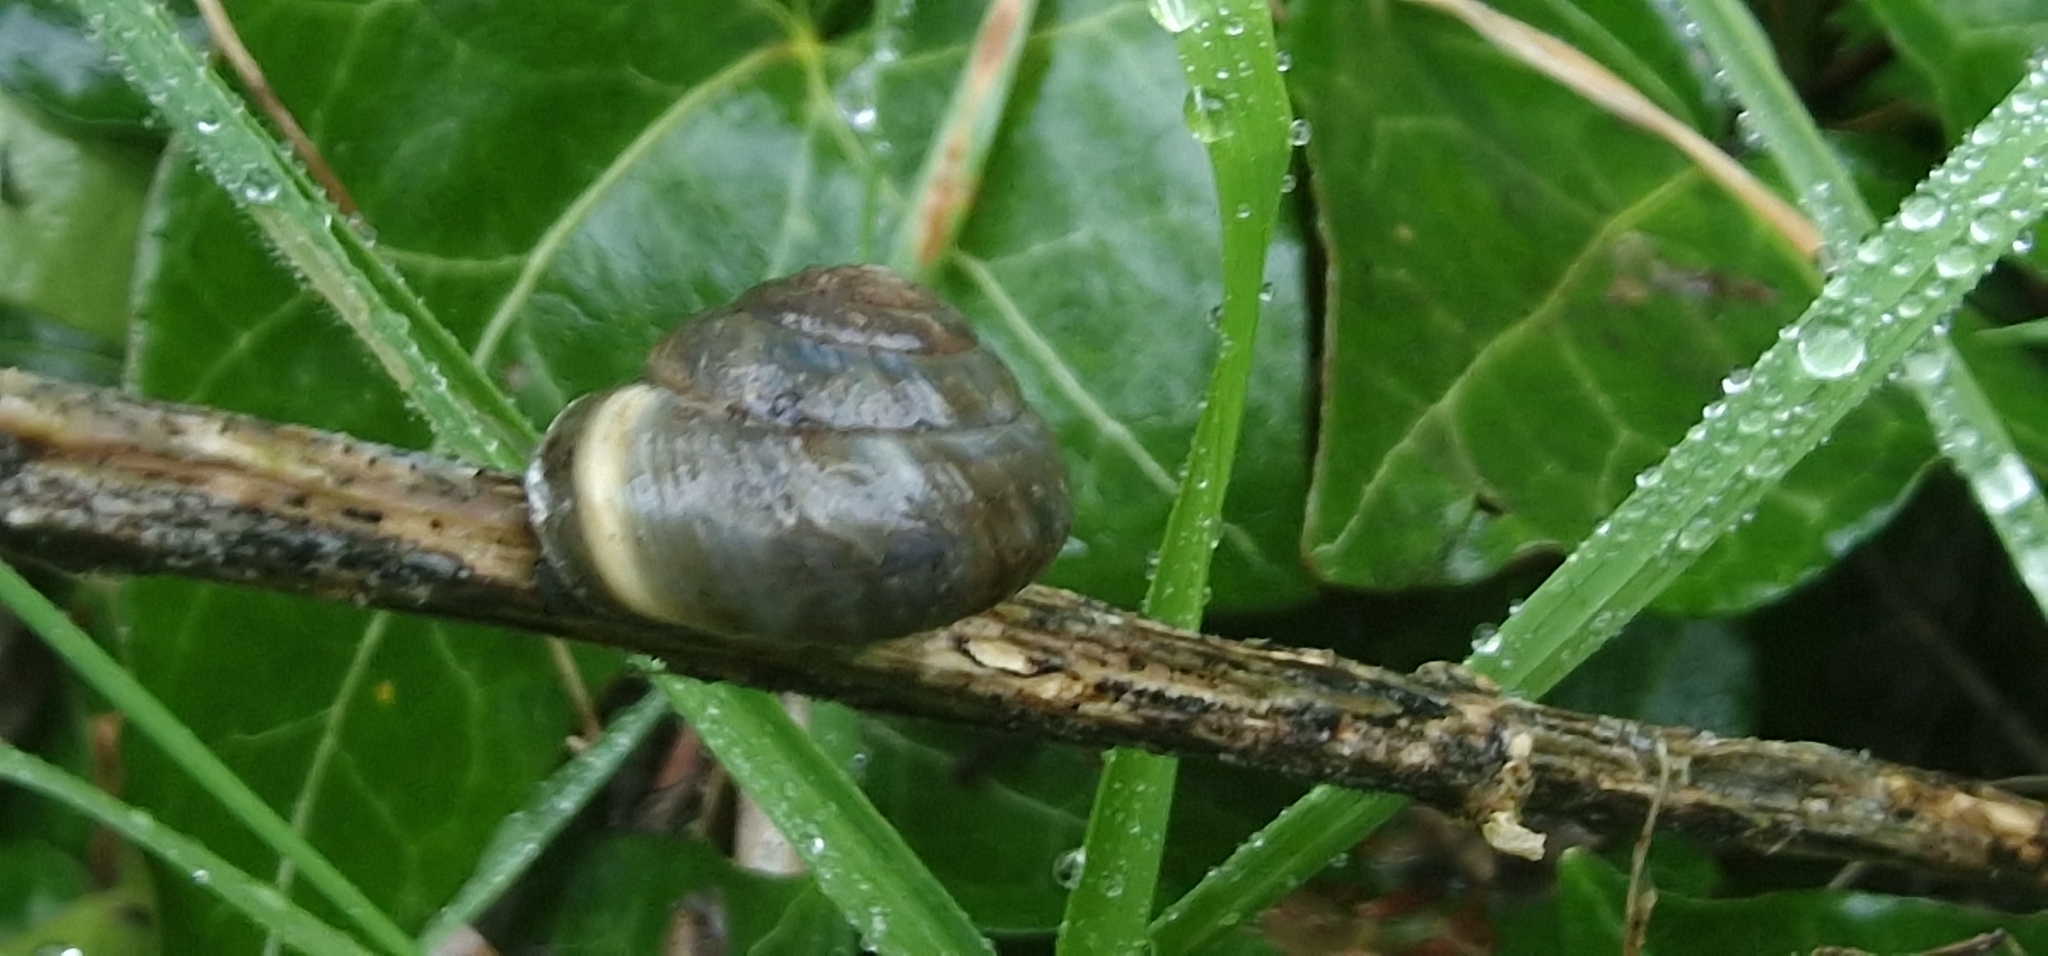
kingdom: Animalia
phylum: Mollusca
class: Gastropoda
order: Stylommatophora
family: Helicidae
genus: Cepaea
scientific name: Cepaea nemoralis
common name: Grovesnail
